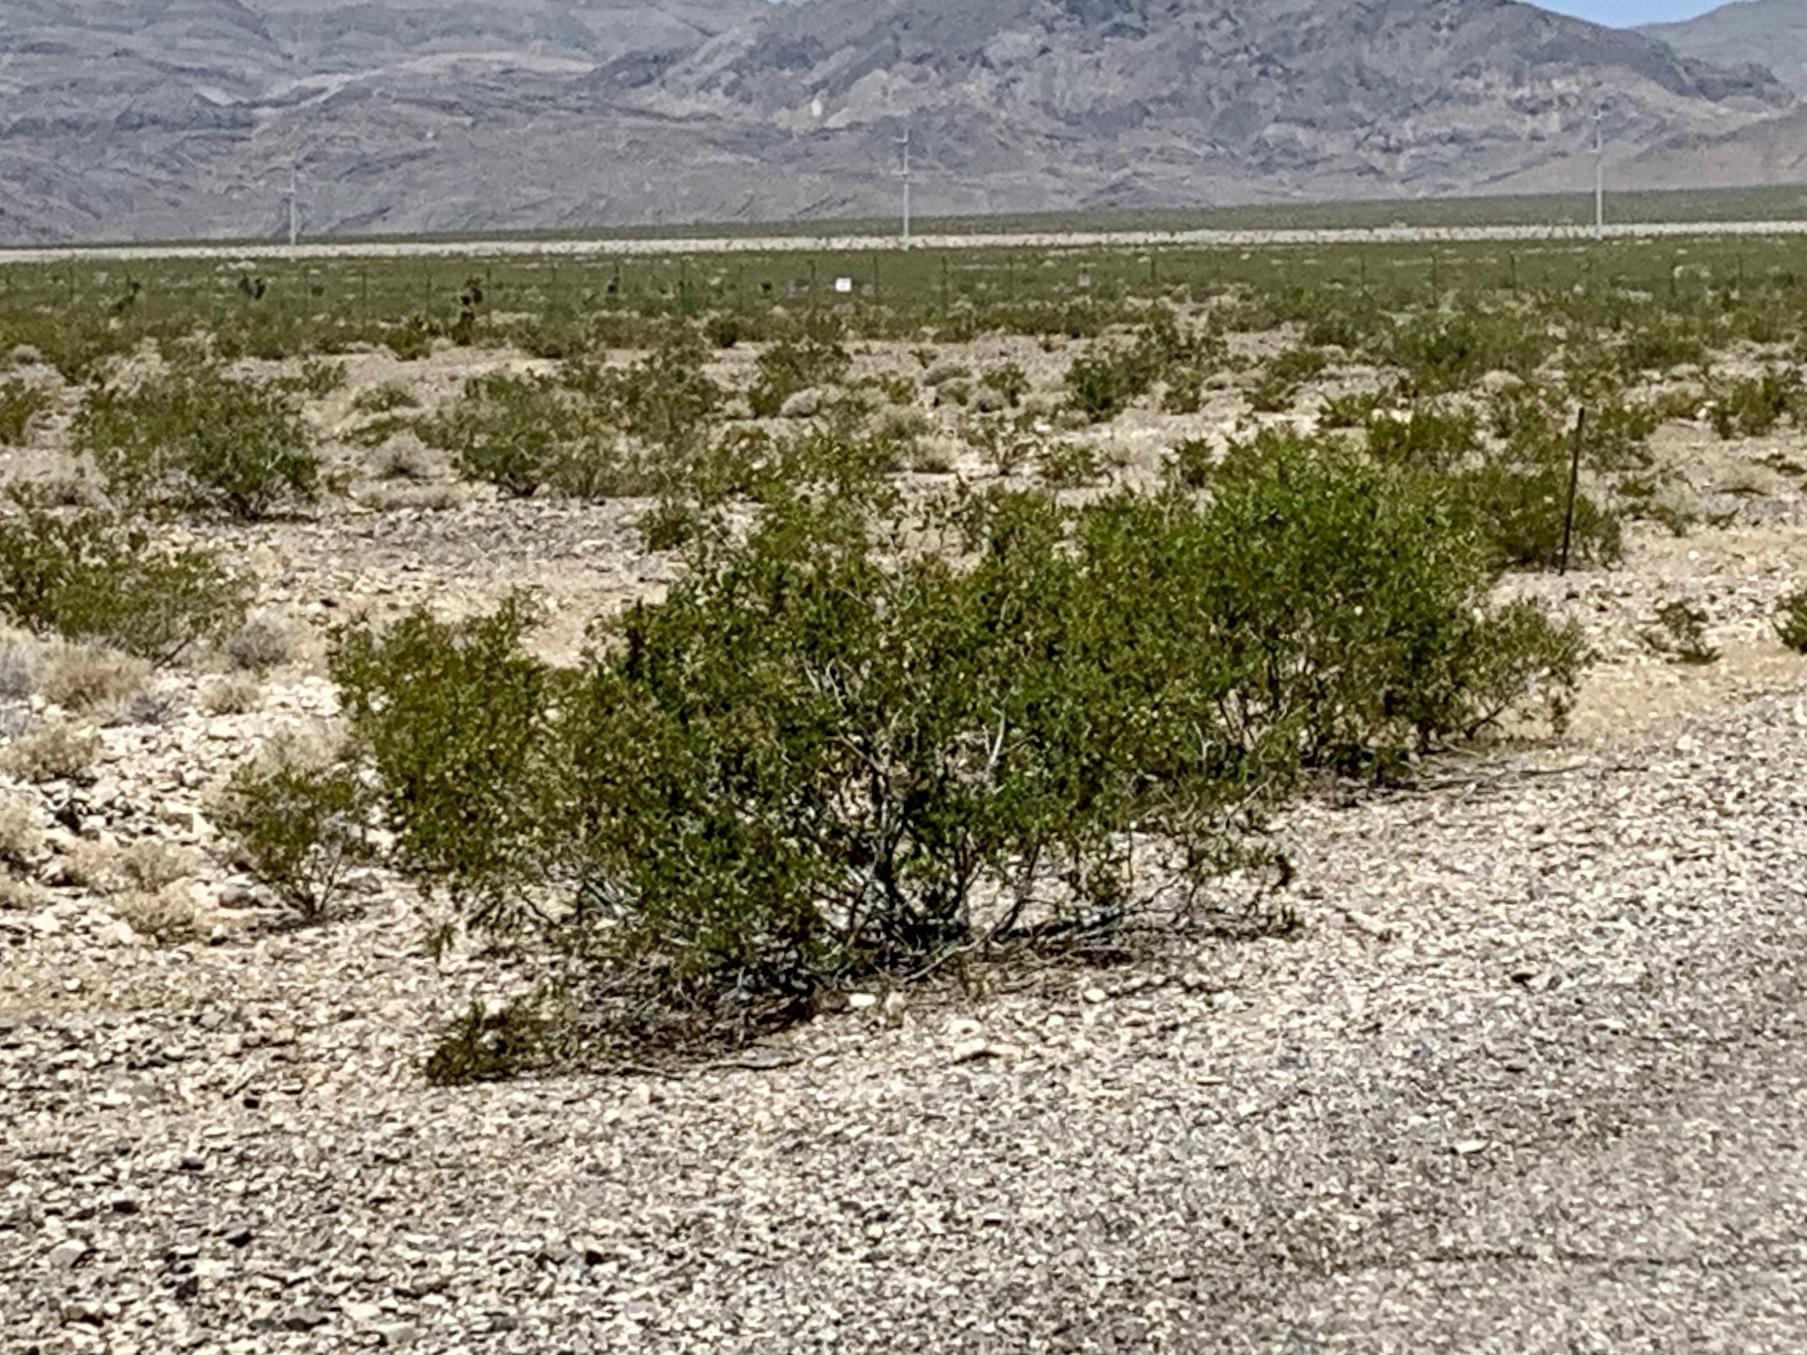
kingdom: Plantae
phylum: Tracheophyta
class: Magnoliopsida
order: Zygophyllales
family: Zygophyllaceae
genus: Larrea
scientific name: Larrea tridentata
